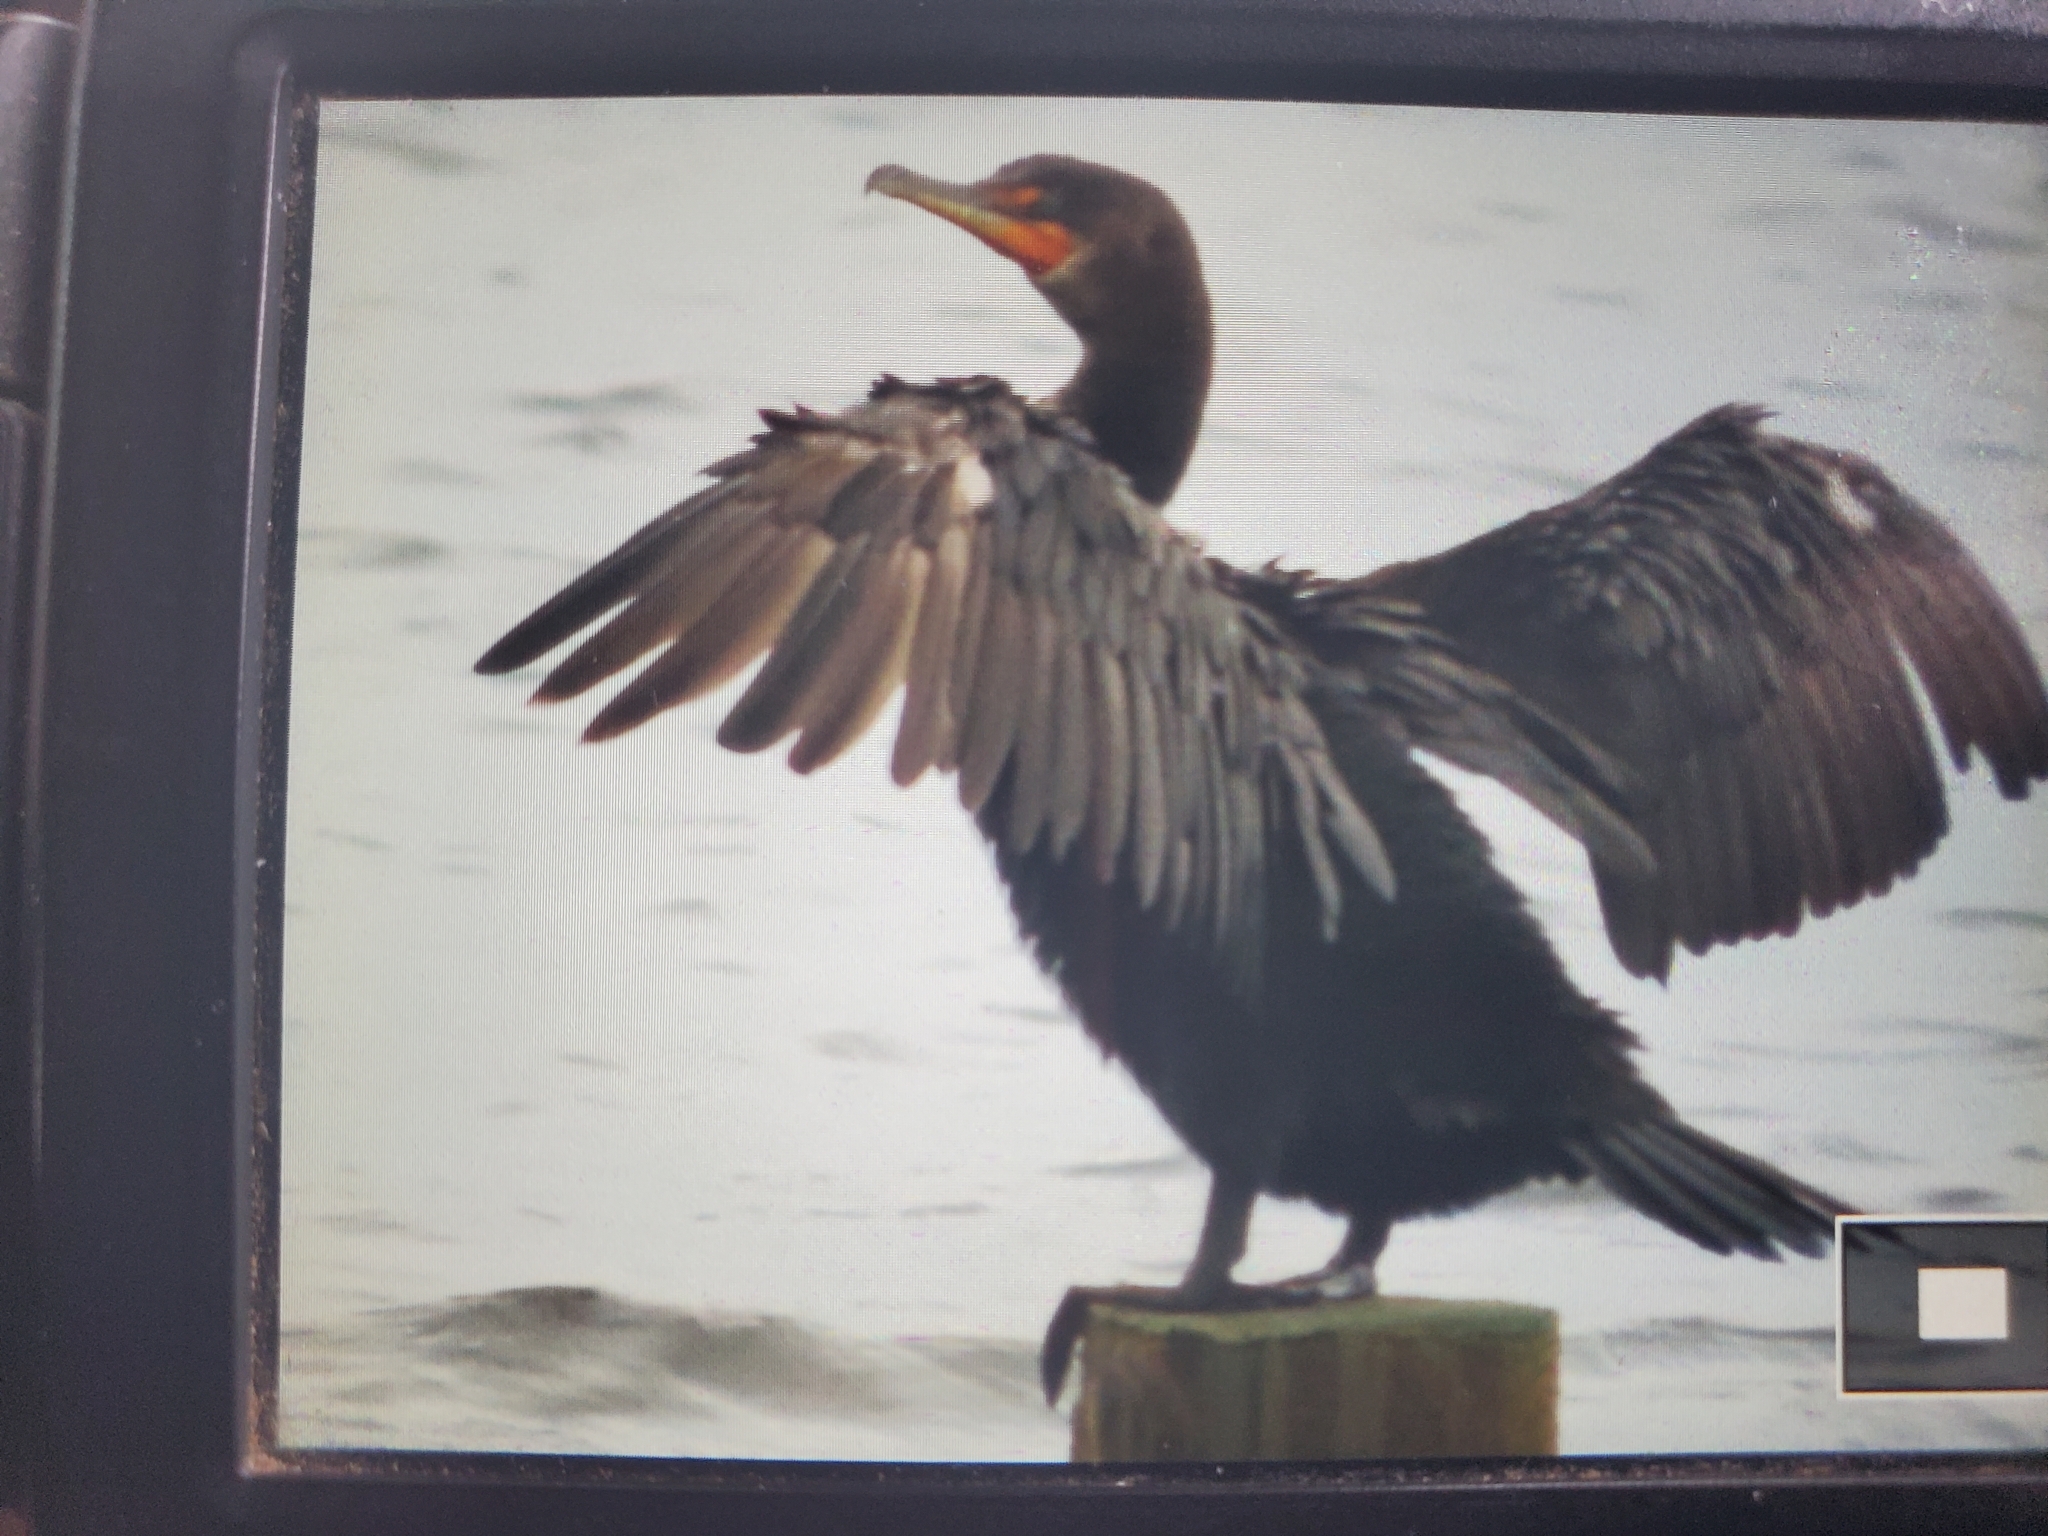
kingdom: Animalia
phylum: Chordata
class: Aves
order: Suliformes
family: Phalacrocoracidae
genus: Phalacrocorax
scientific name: Phalacrocorax auritus
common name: Double-crested cormorant
